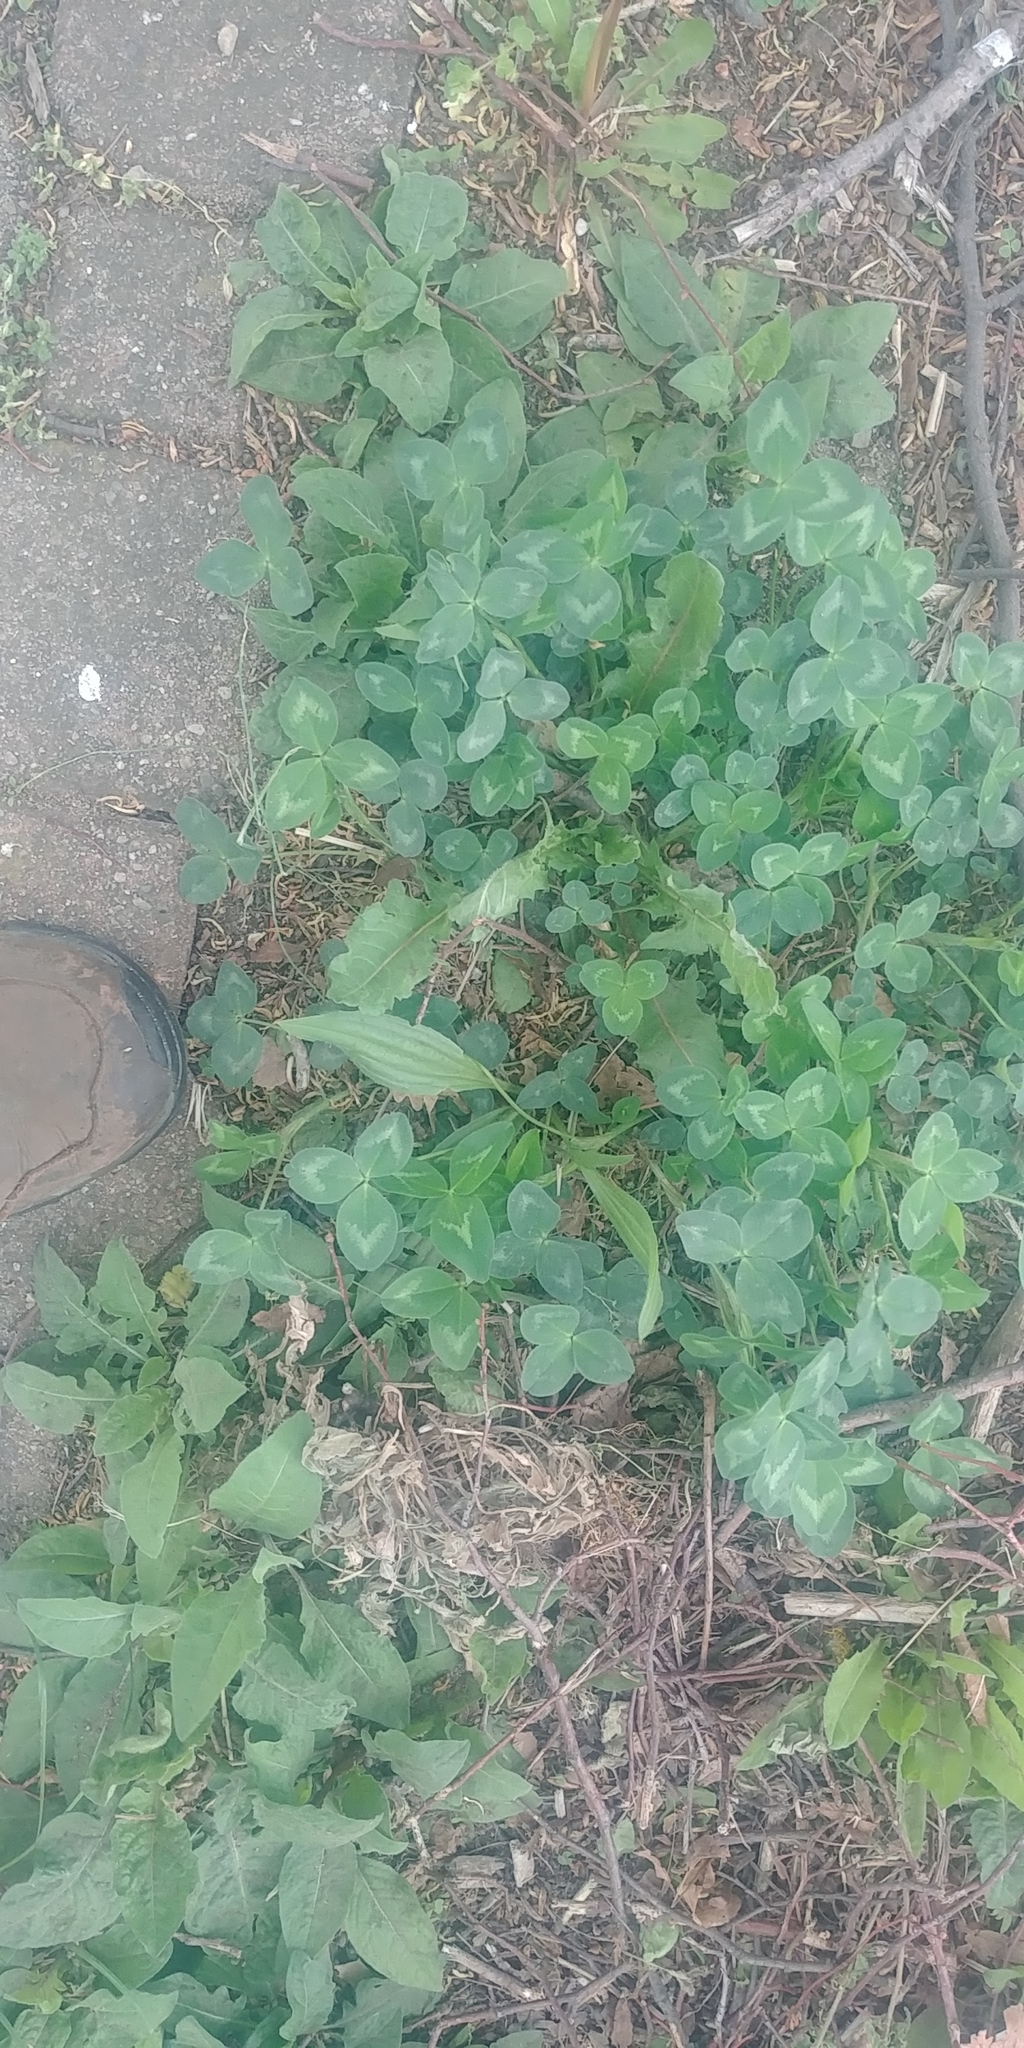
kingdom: Plantae
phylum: Tracheophyta
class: Magnoliopsida
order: Fabales
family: Fabaceae
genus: Trifolium
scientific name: Trifolium pratense
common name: Red clover
